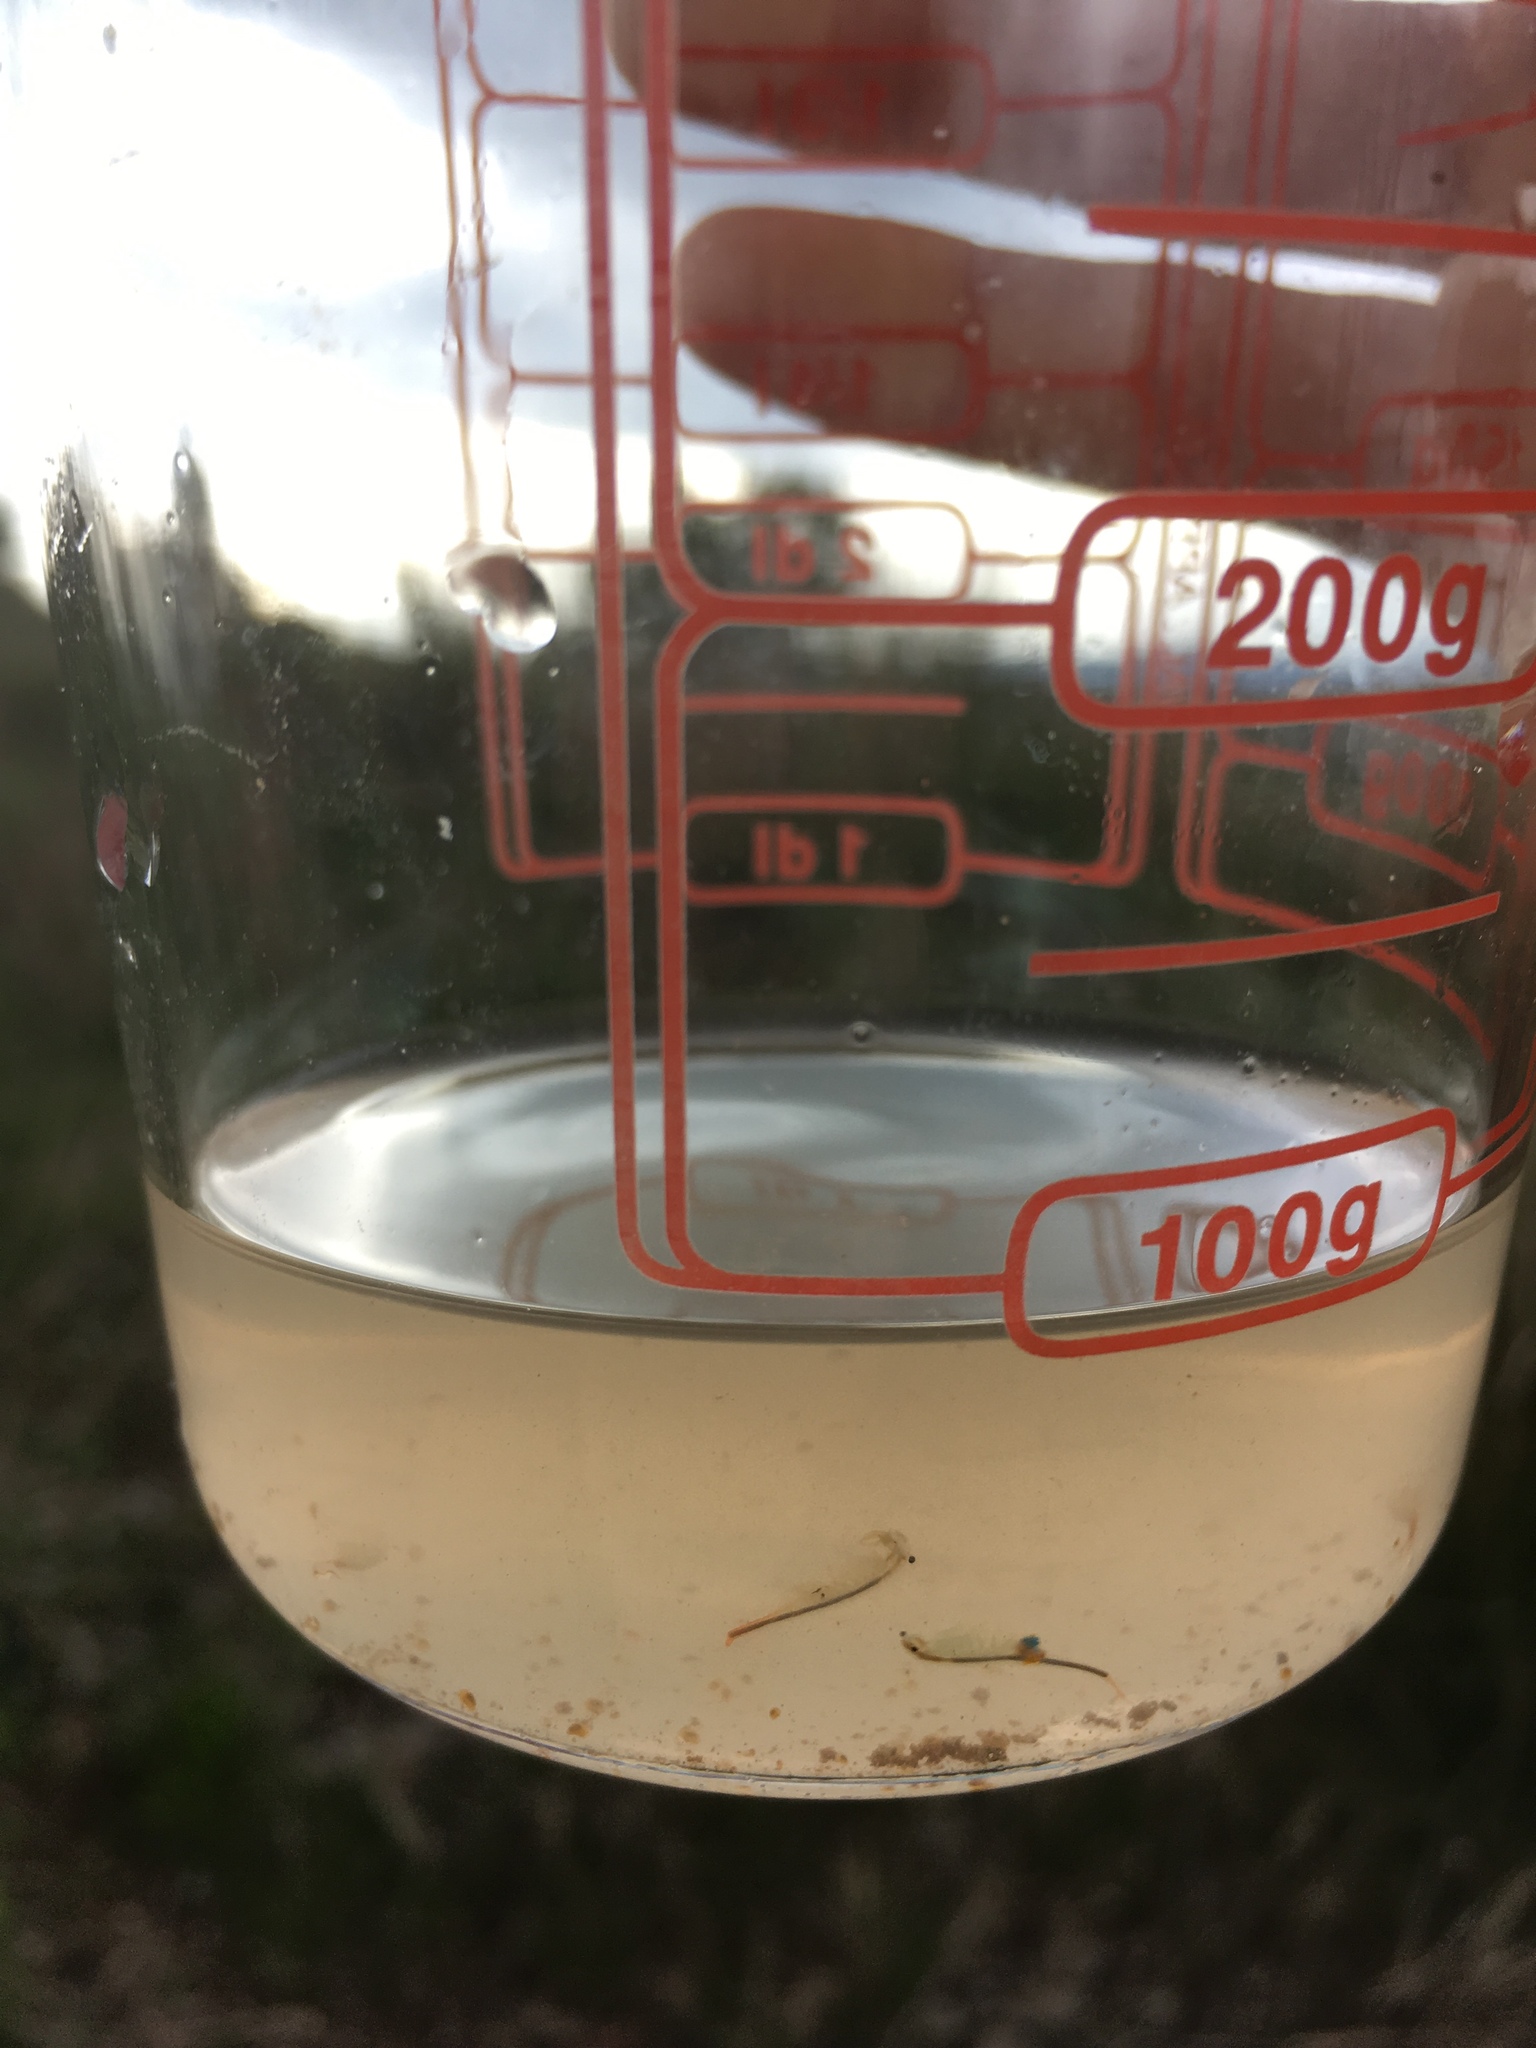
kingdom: Animalia
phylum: Arthropoda
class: Branchiopoda
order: Anostraca
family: Branchipodidae
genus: Branchipus
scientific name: Branchipus schaefferi
